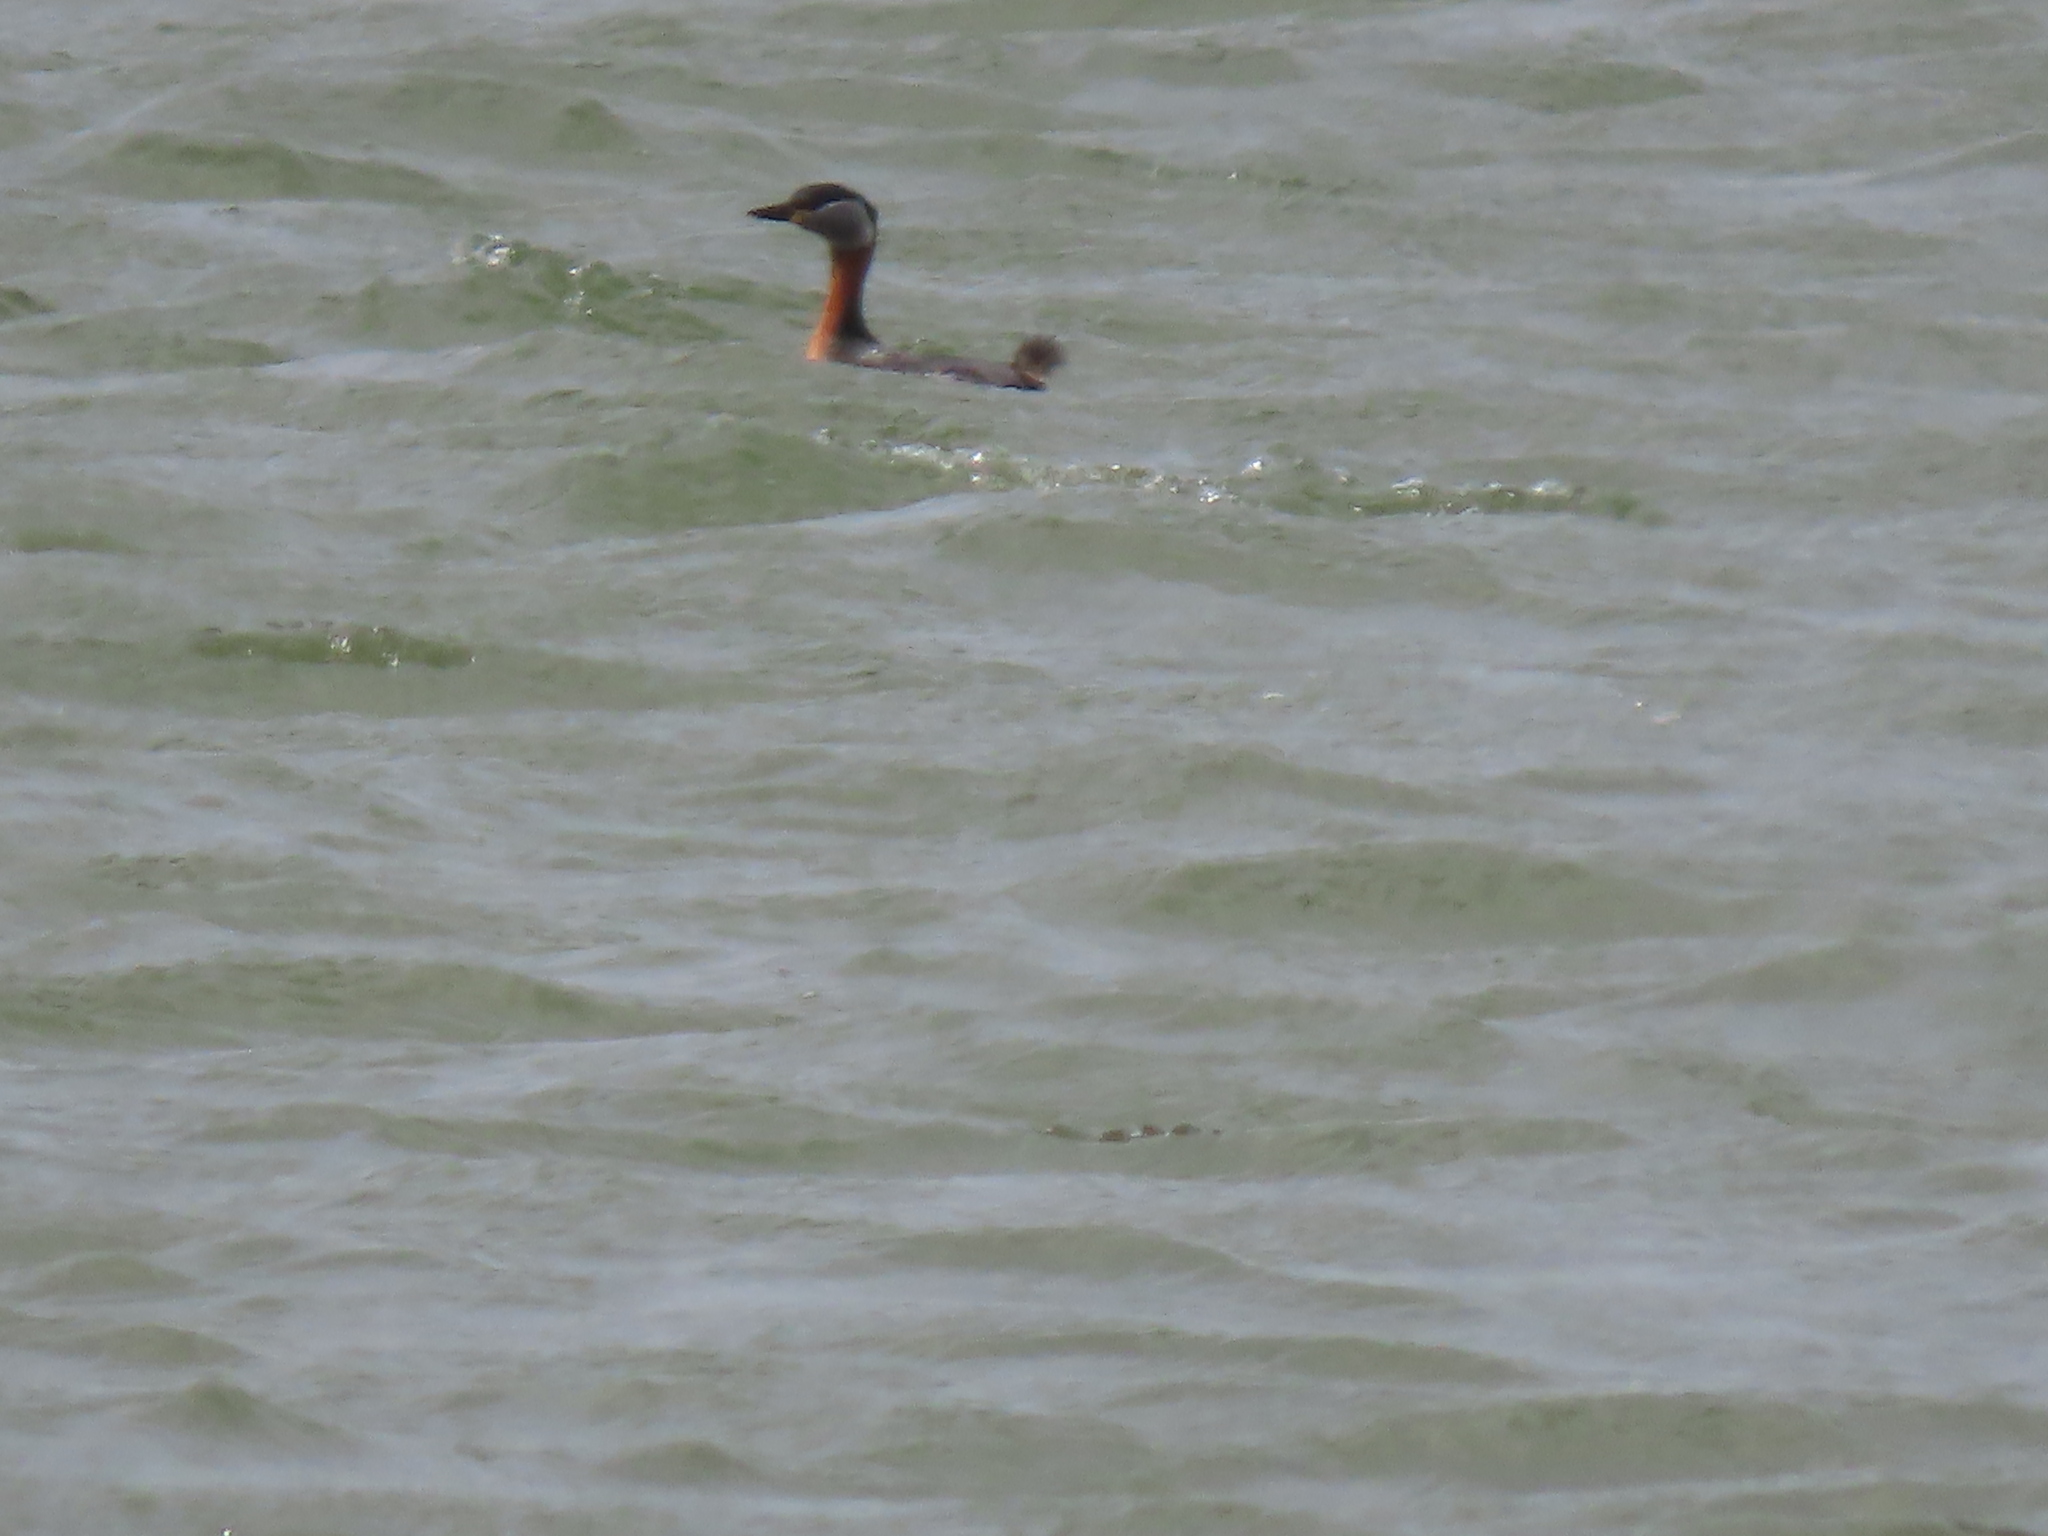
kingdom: Animalia
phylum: Chordata
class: Aves
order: Podicipediformes
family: Podicipedidae
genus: Podiceps
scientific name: Podiceps grisegena
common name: Red-necked grebe
